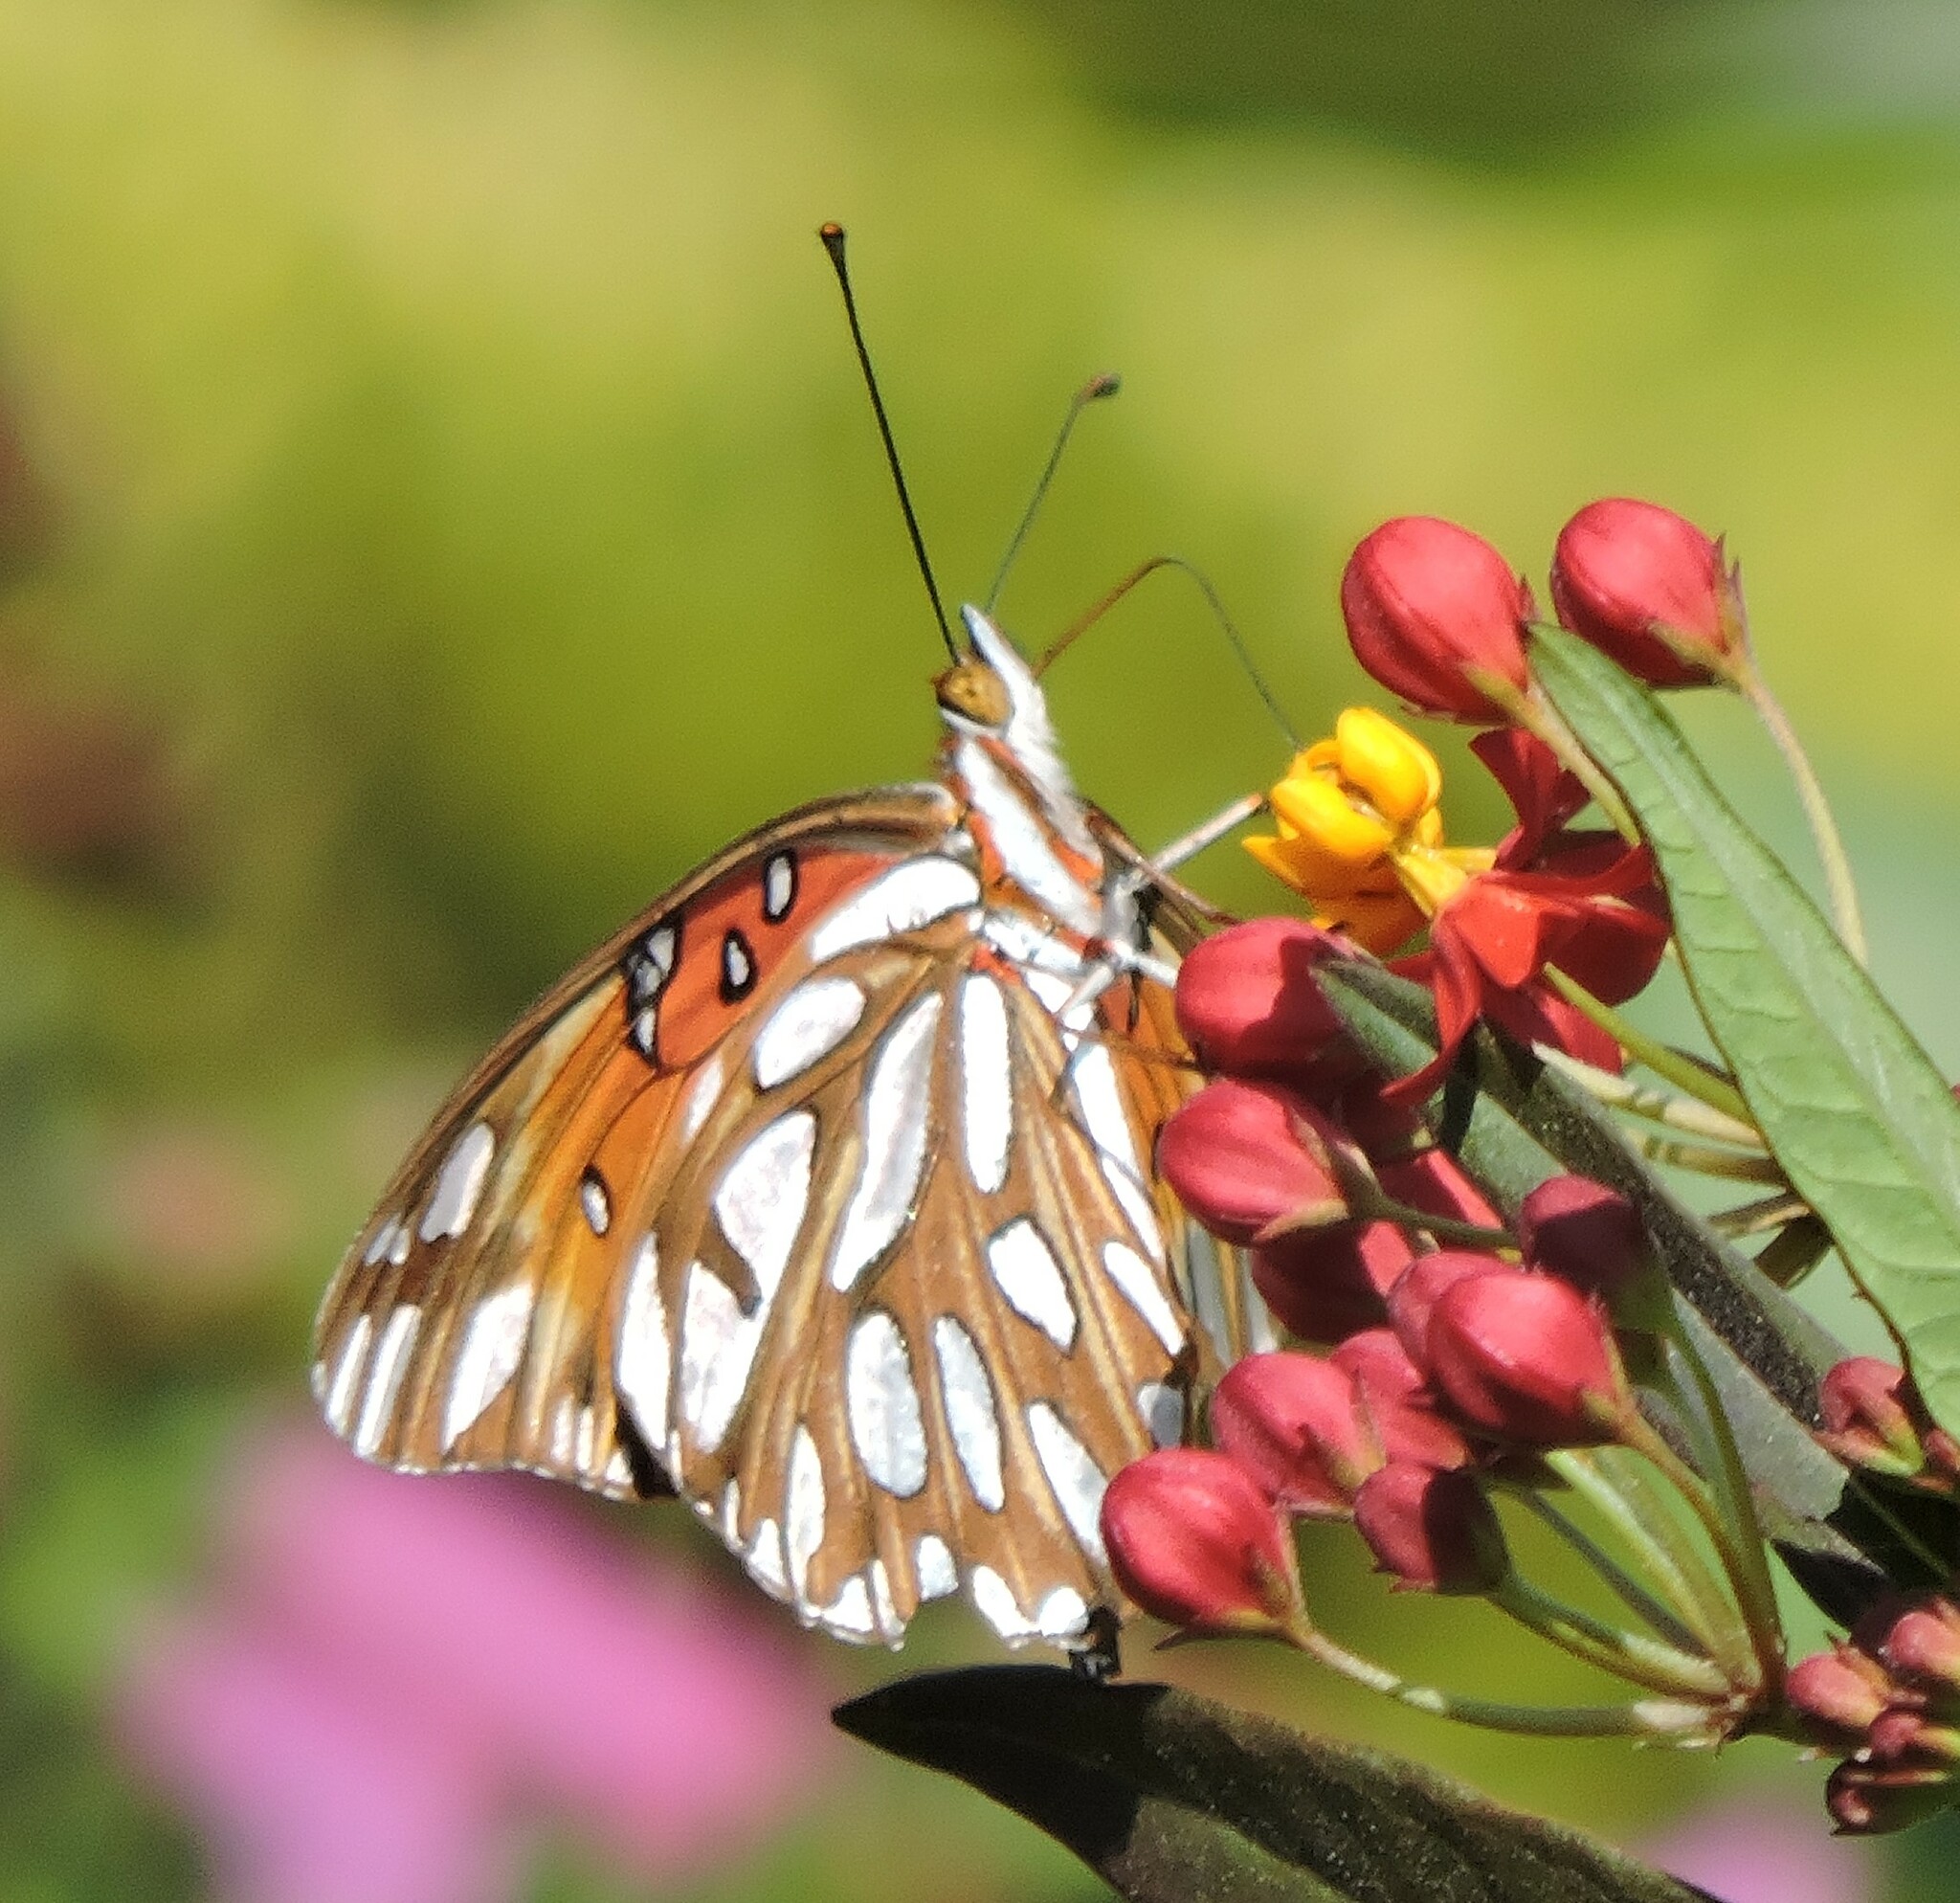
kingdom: Animalia
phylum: Arthropoda
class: Insecta
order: Lepidoptera
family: Nymphalidae
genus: Dione
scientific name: Dione vanillae
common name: Gulf fritillary
